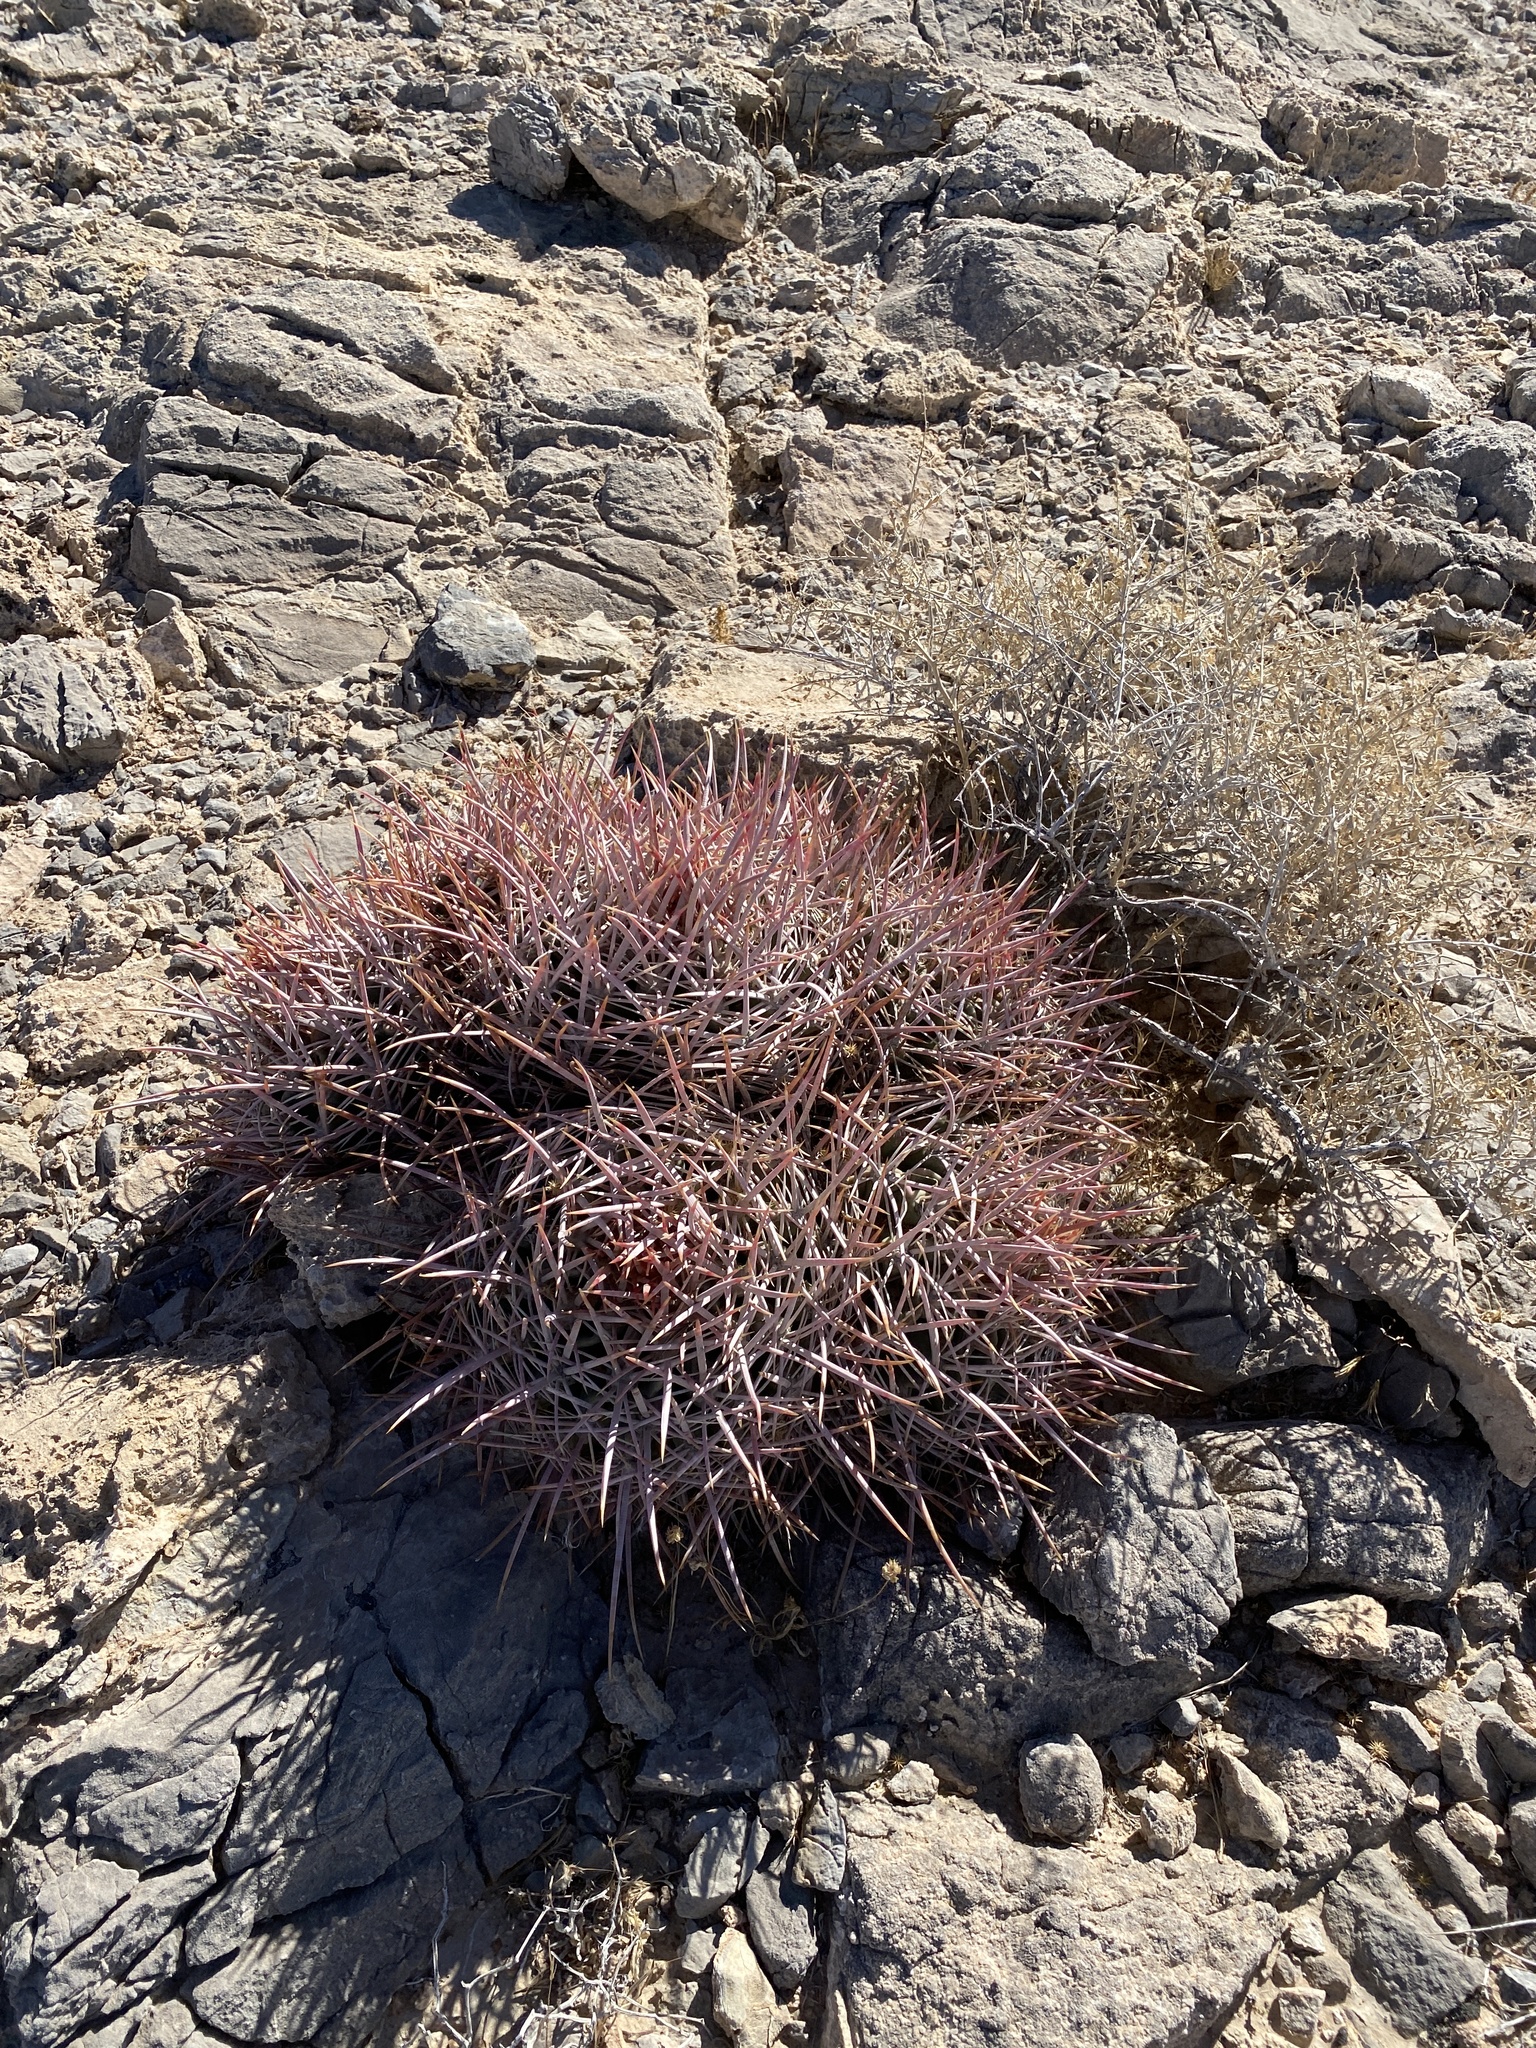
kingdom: Plantae
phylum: Tracheophyta
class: Magnoliopsida
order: Caryophyllales
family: Cactaceae
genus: Echinocactus
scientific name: Echinocactus polycephalus
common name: Cottontop cactus
